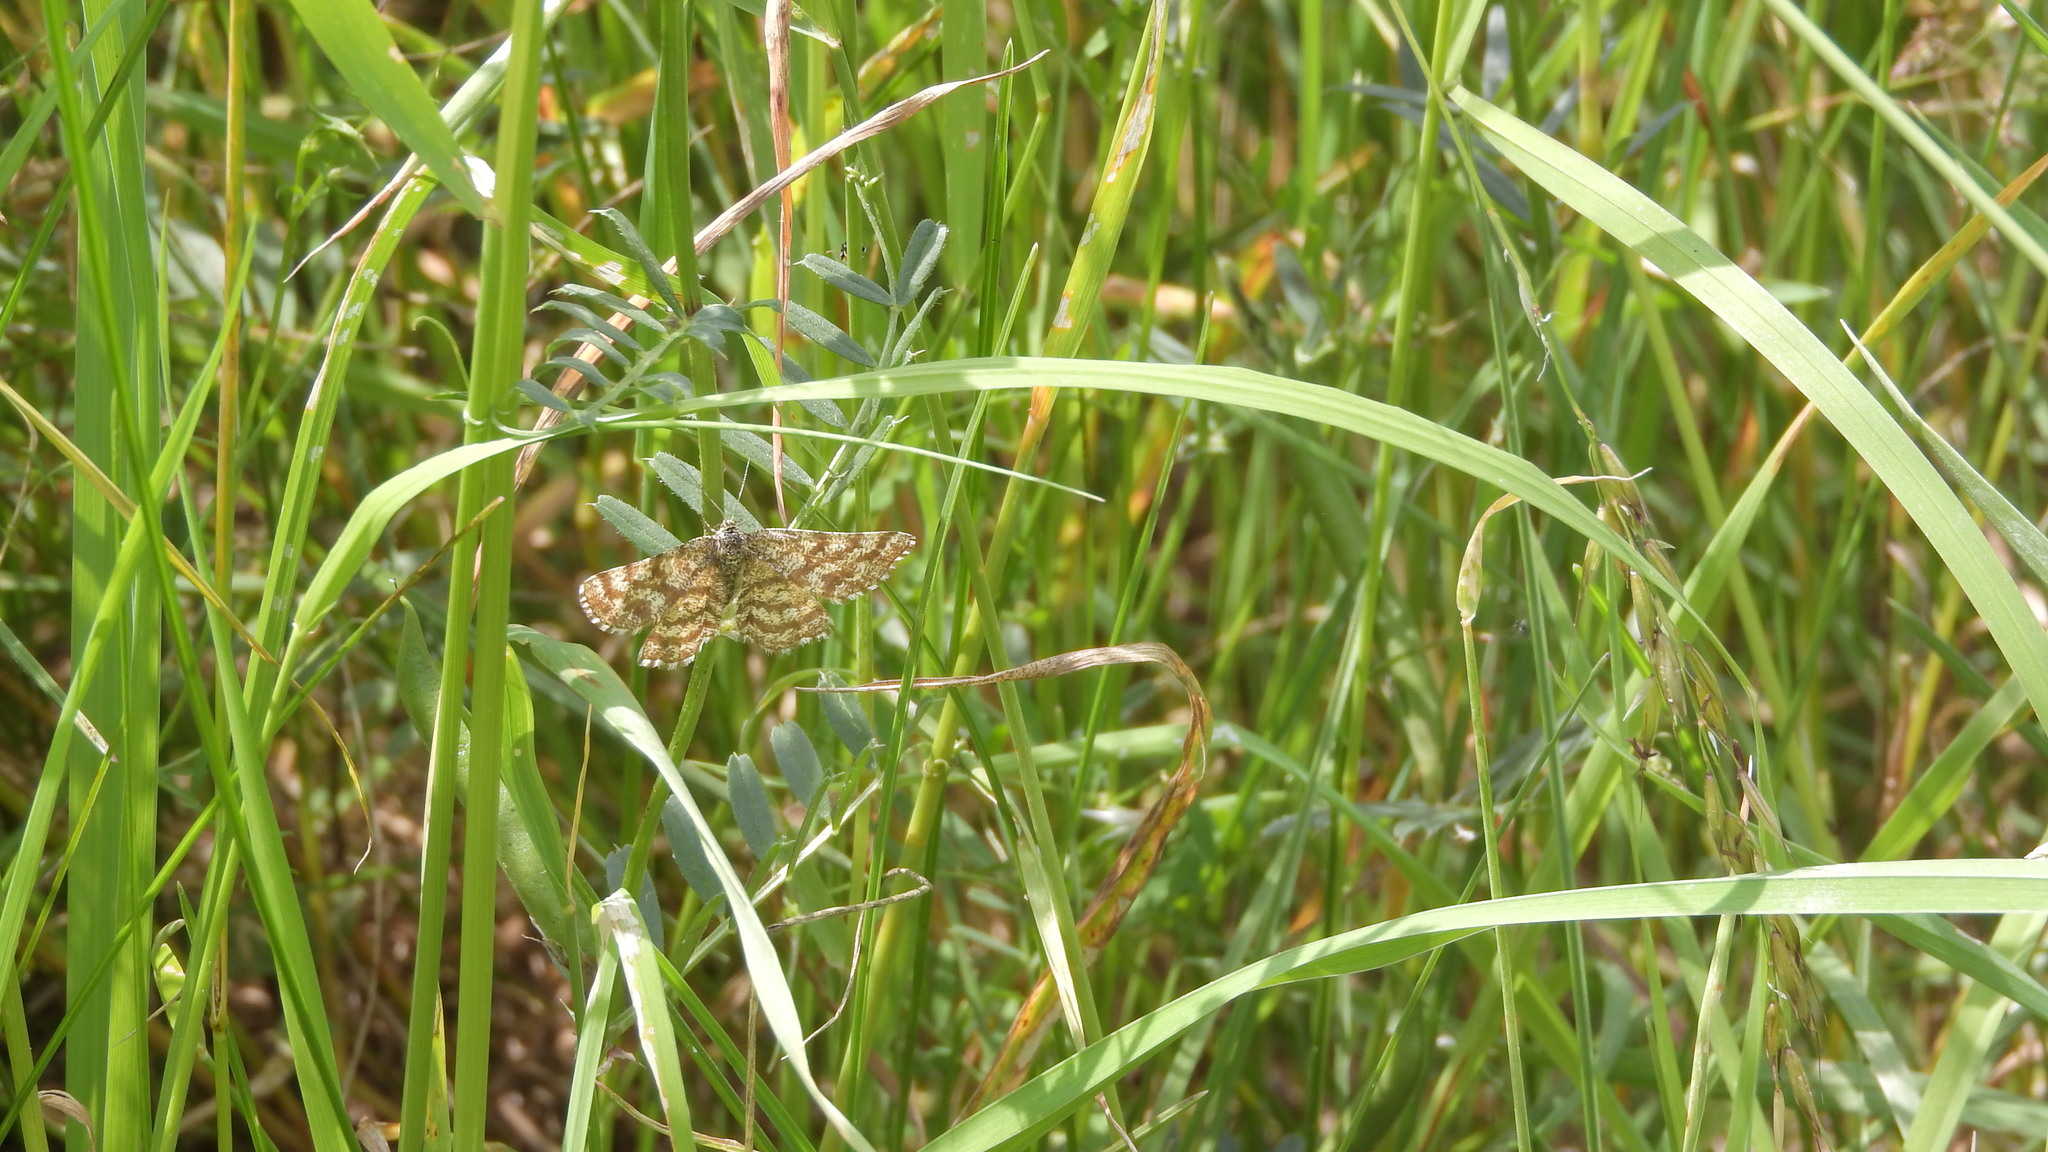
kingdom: Animalia
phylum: Arthropoda
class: Insecta
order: Lepidoptera
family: Geometridae
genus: Chiasmia
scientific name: Chiasmia clathrata
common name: Latticed heath
